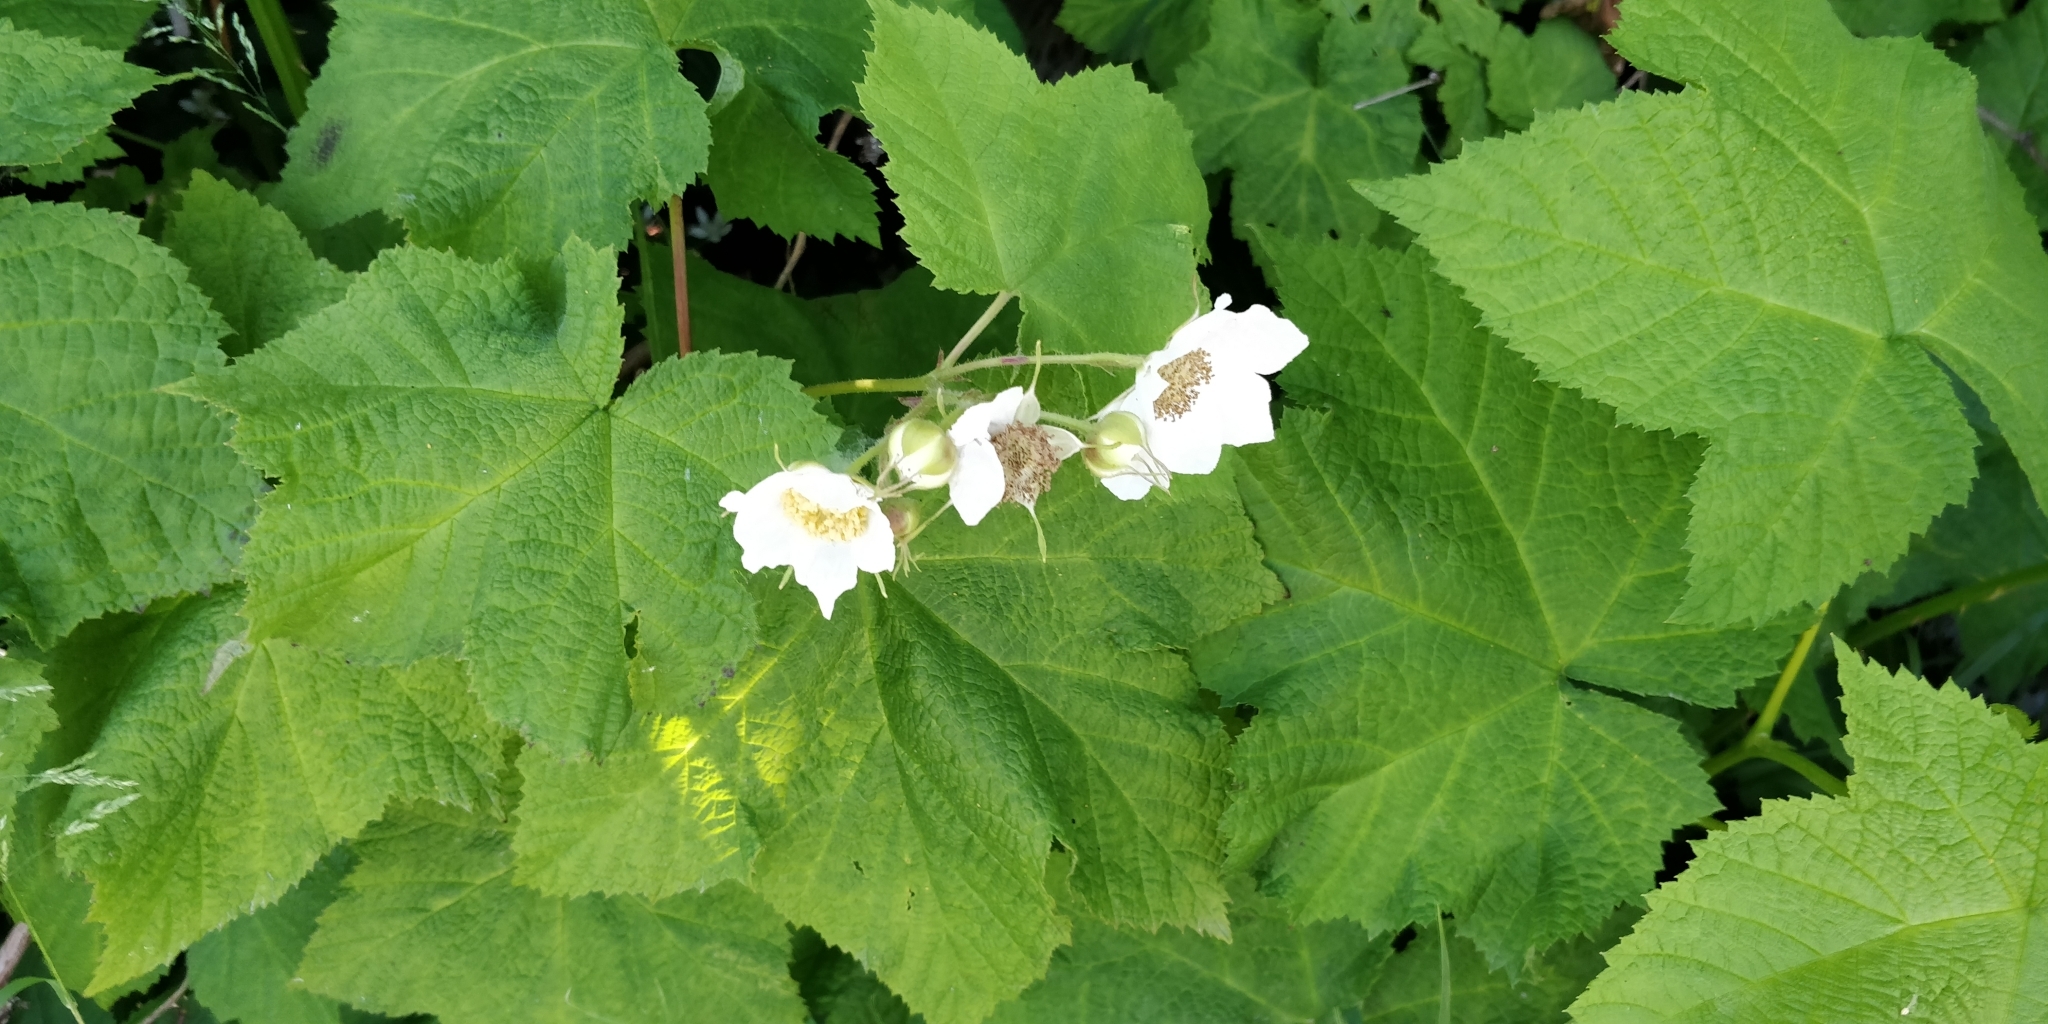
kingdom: Plantae
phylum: Tracheophyta
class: Magnoliopsida
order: Rosales
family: Rosaceae
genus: Rubus
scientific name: Rubus parviflorus
